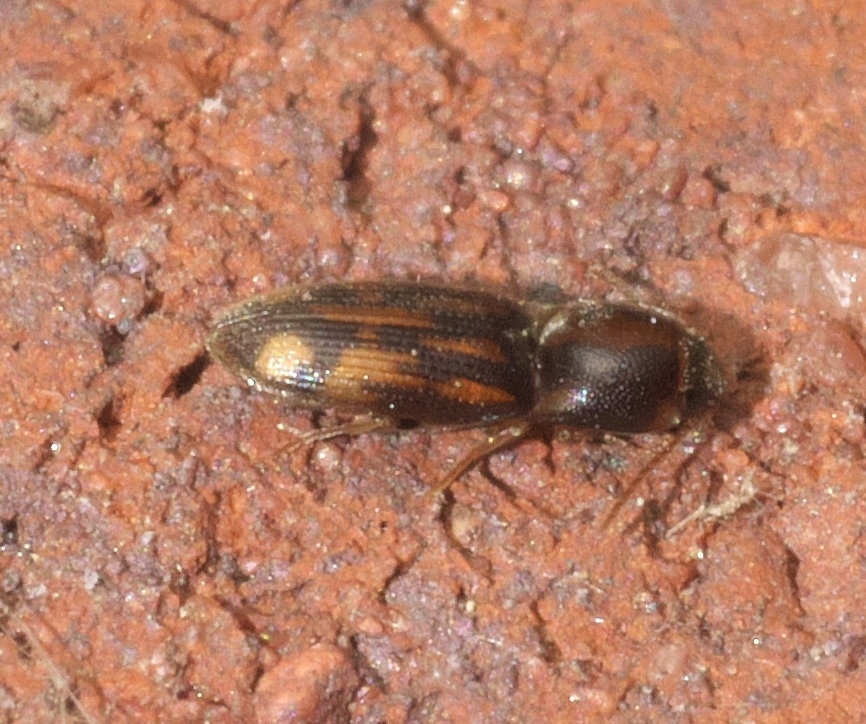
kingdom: Animalia
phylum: Arthropoda
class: Insecta
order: Coleoptera
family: Elateridae
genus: Monocrepidius
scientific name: Monocrepidius bellus
